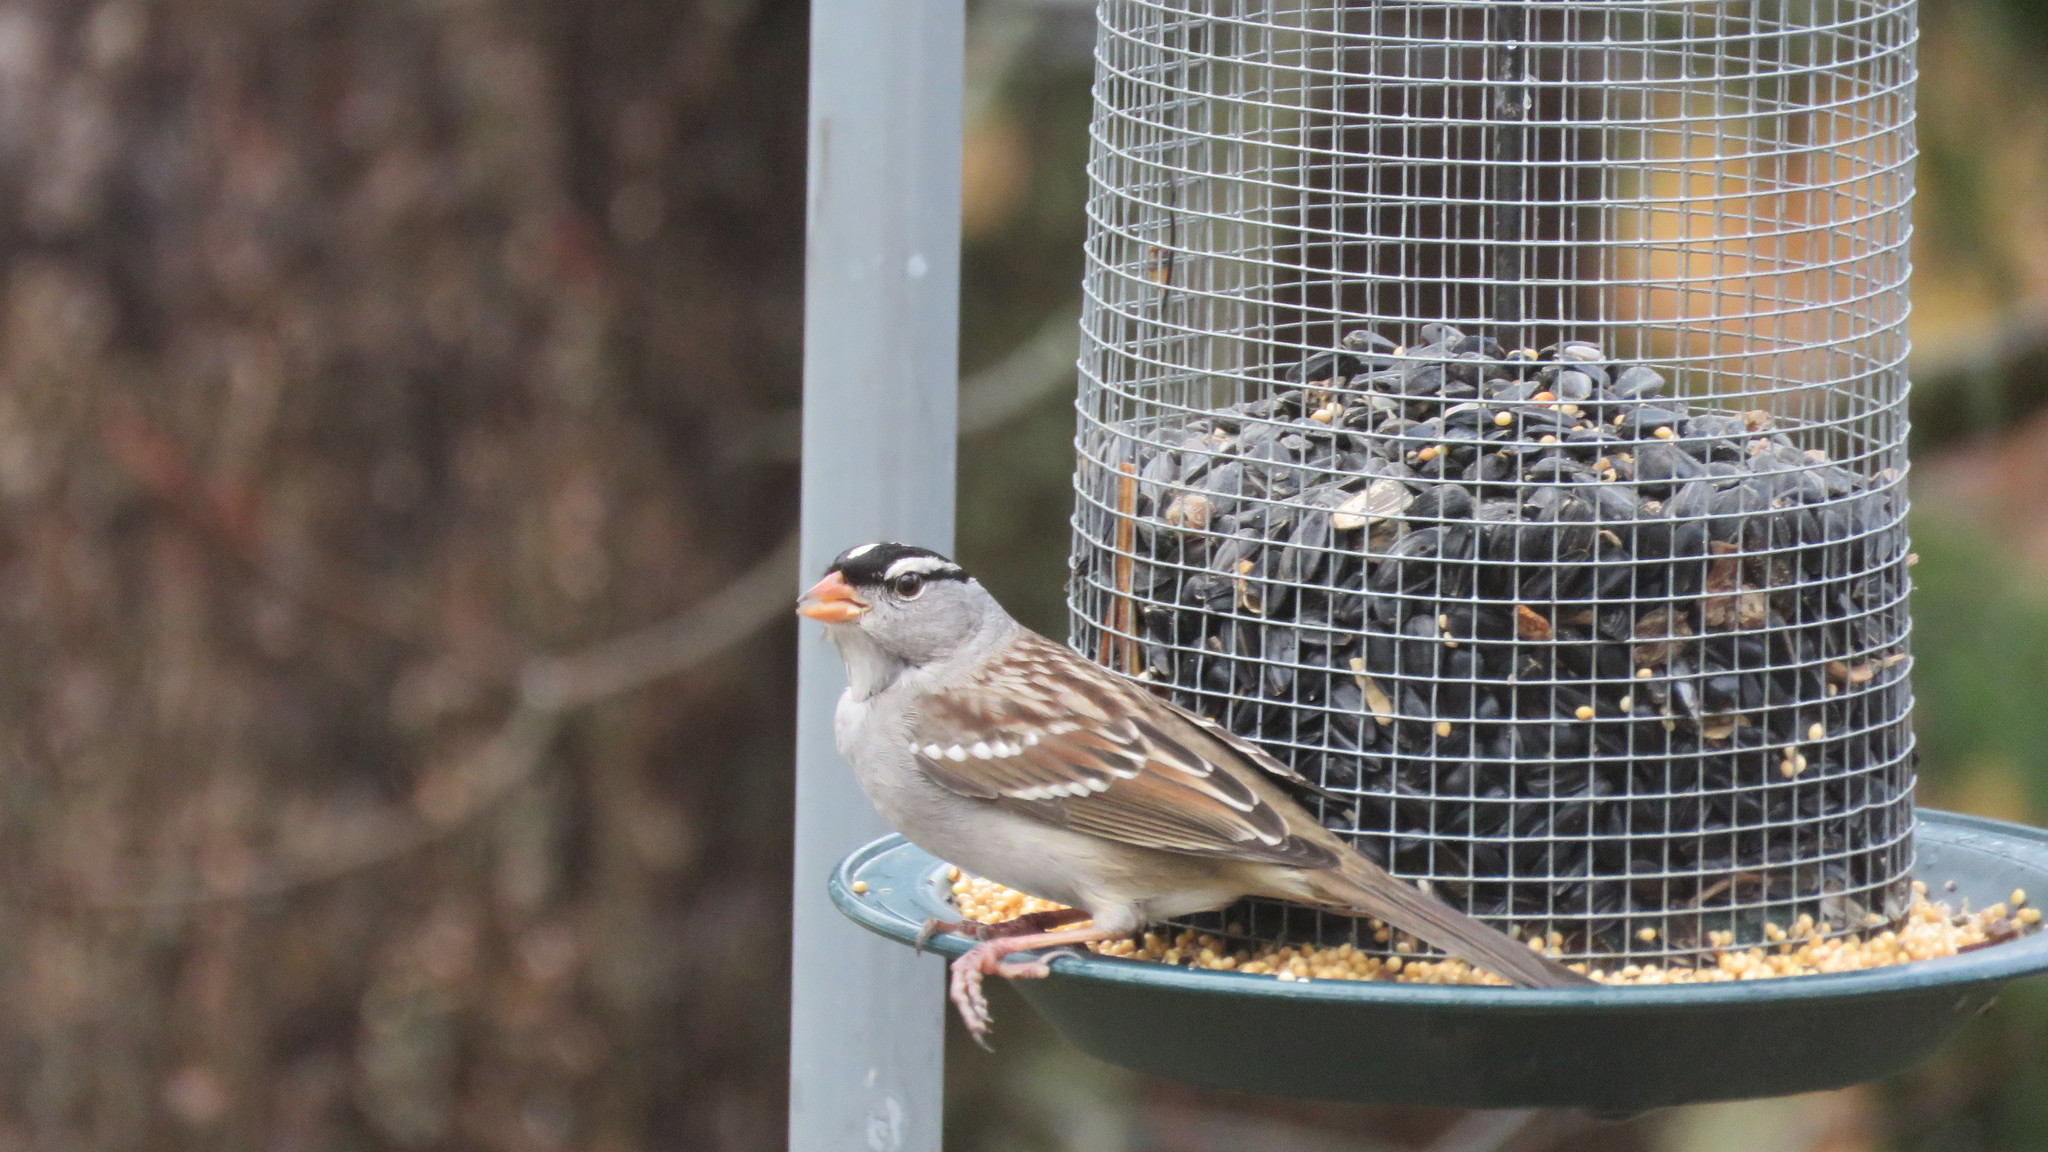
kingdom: Animalia
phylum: Chordata
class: Aves
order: Passeriformes
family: Passerellidae
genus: Zonotrichia
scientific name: Zonotrichia leucophrys
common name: White-crowned sparrow
